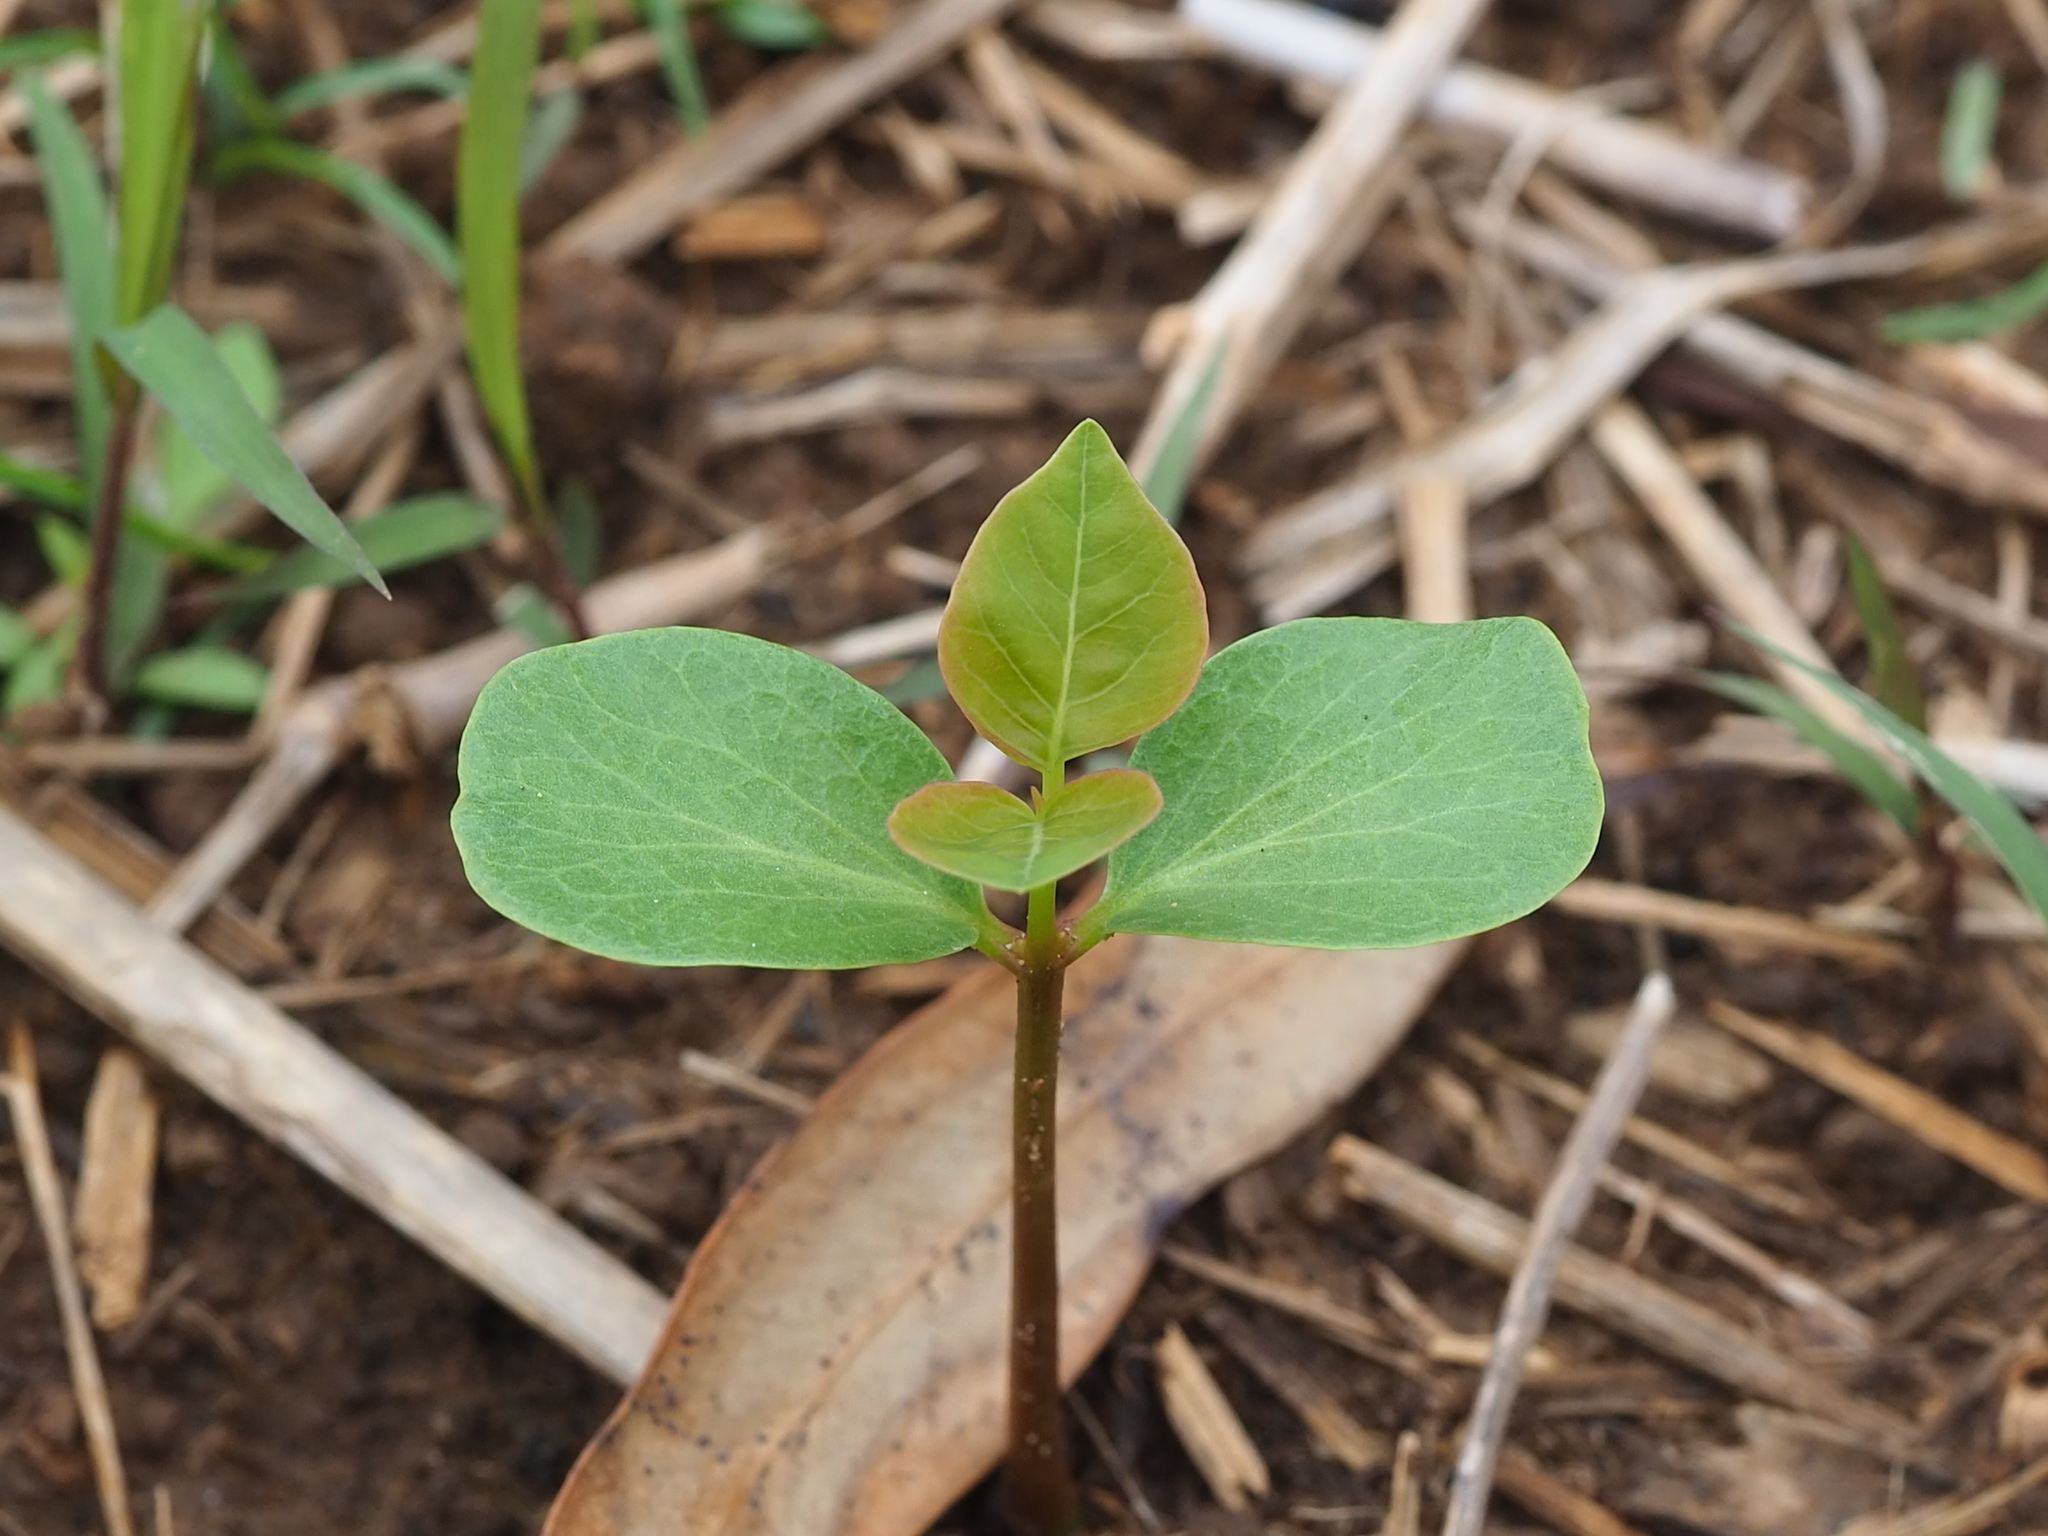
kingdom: Plantae
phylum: Tracheophyta
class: Magnoliopsida
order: Malpighiales
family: Euphorbiaceae
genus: Triadica
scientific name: Triadica sebifera
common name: Chinese tallow
